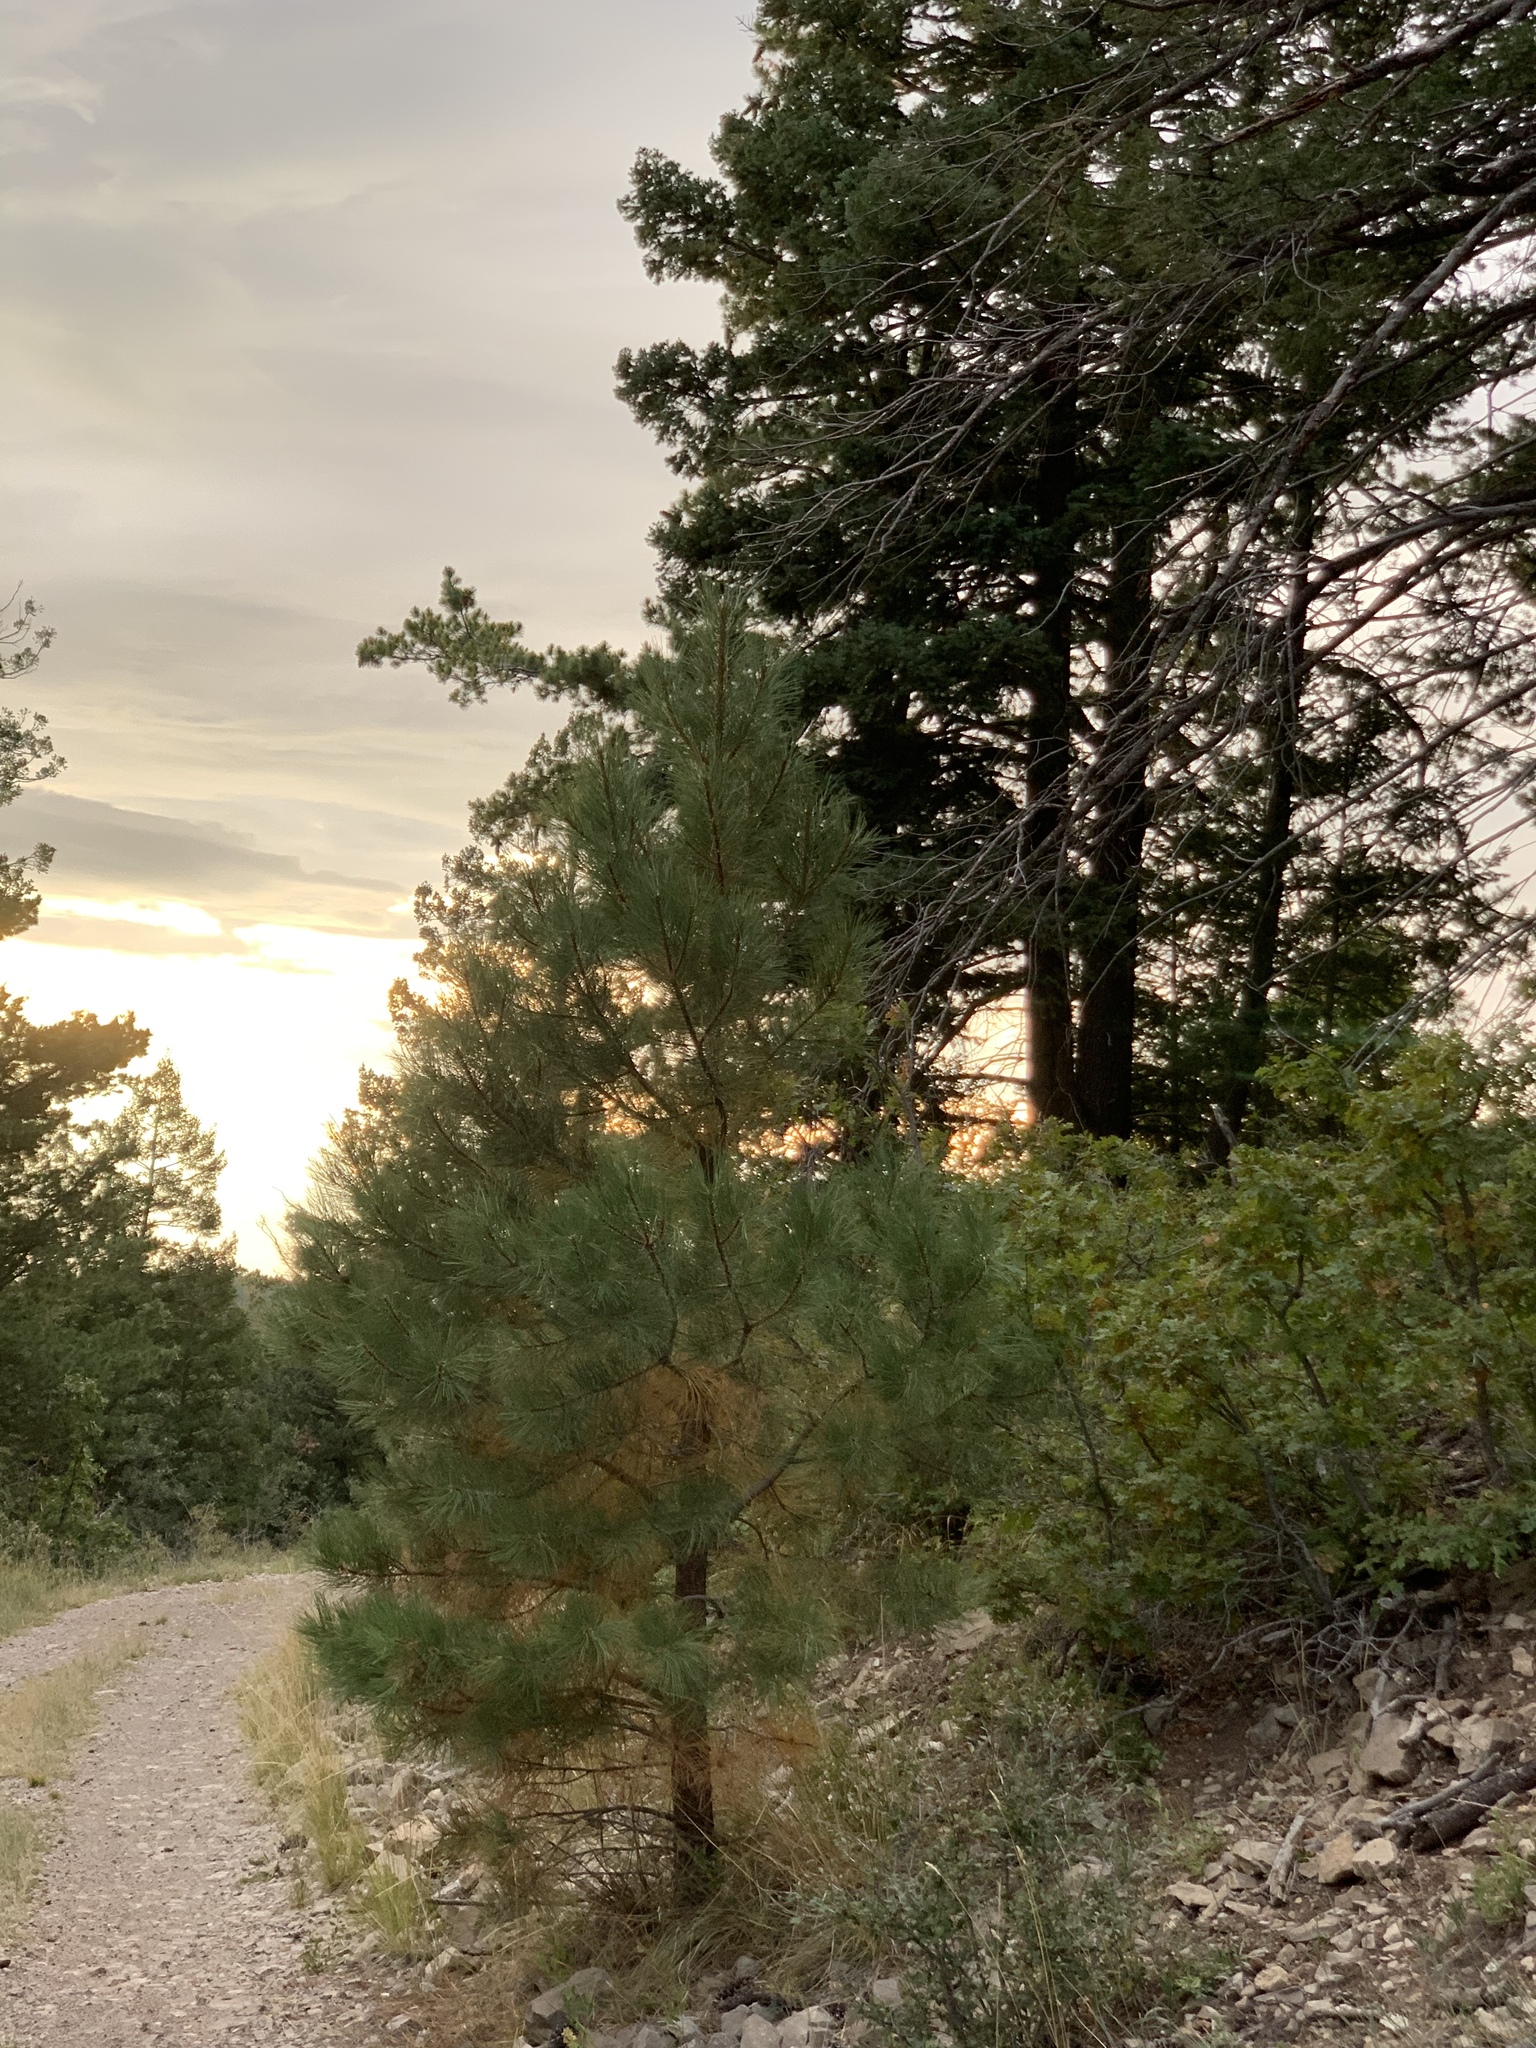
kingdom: Plantae
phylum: Tracheophyta
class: Pinopsida
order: Pinales
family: Pinaceae
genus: Pinus
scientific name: Pinus ponderosa
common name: Western yellow-pine
